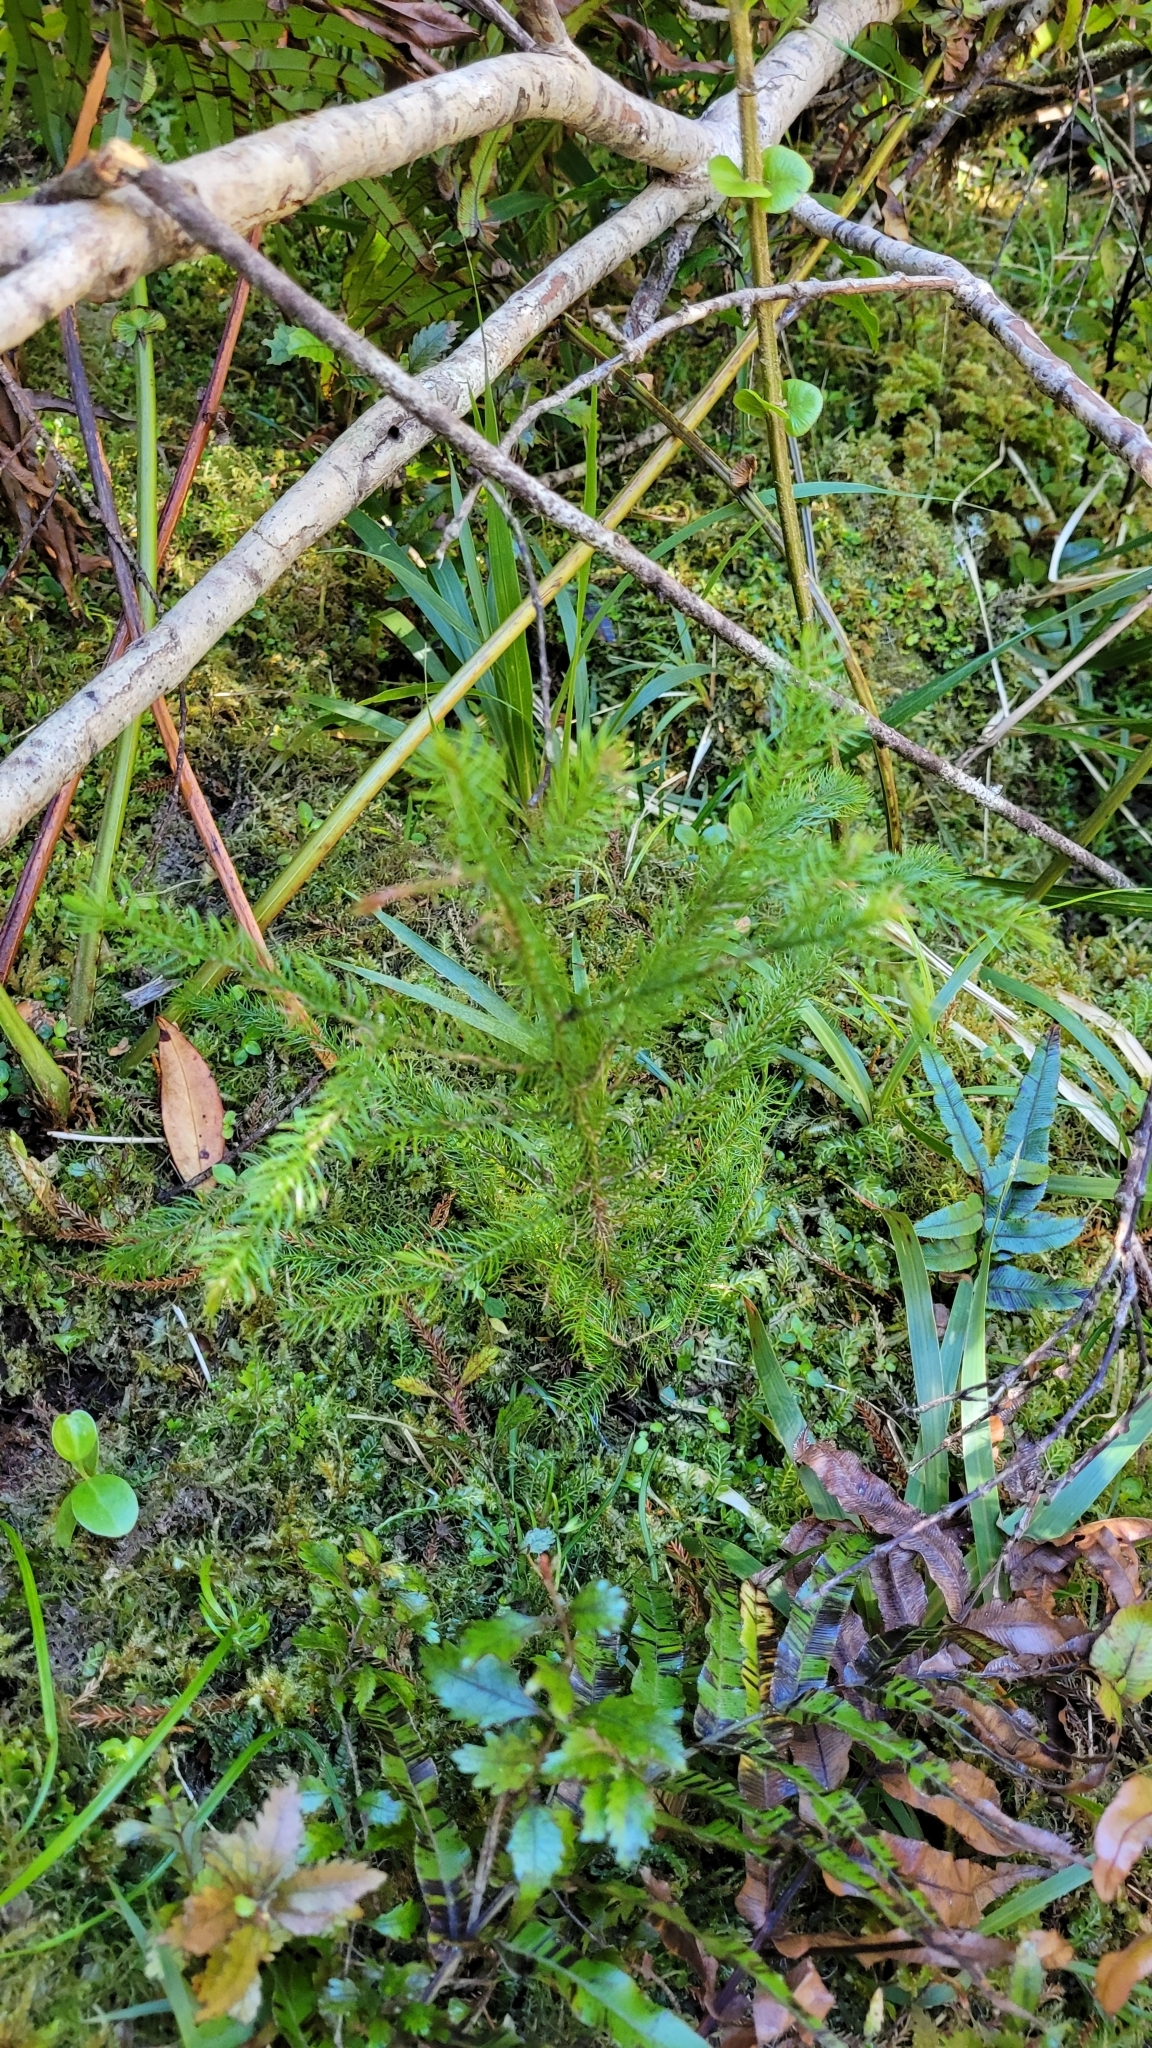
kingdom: Plantae
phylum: Tracheophyta
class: Pinopsida
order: Pinales
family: Podocarpaceae
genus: Lepidothamnus
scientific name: Lepidothamnus intermedius
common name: Yellow silver pine
